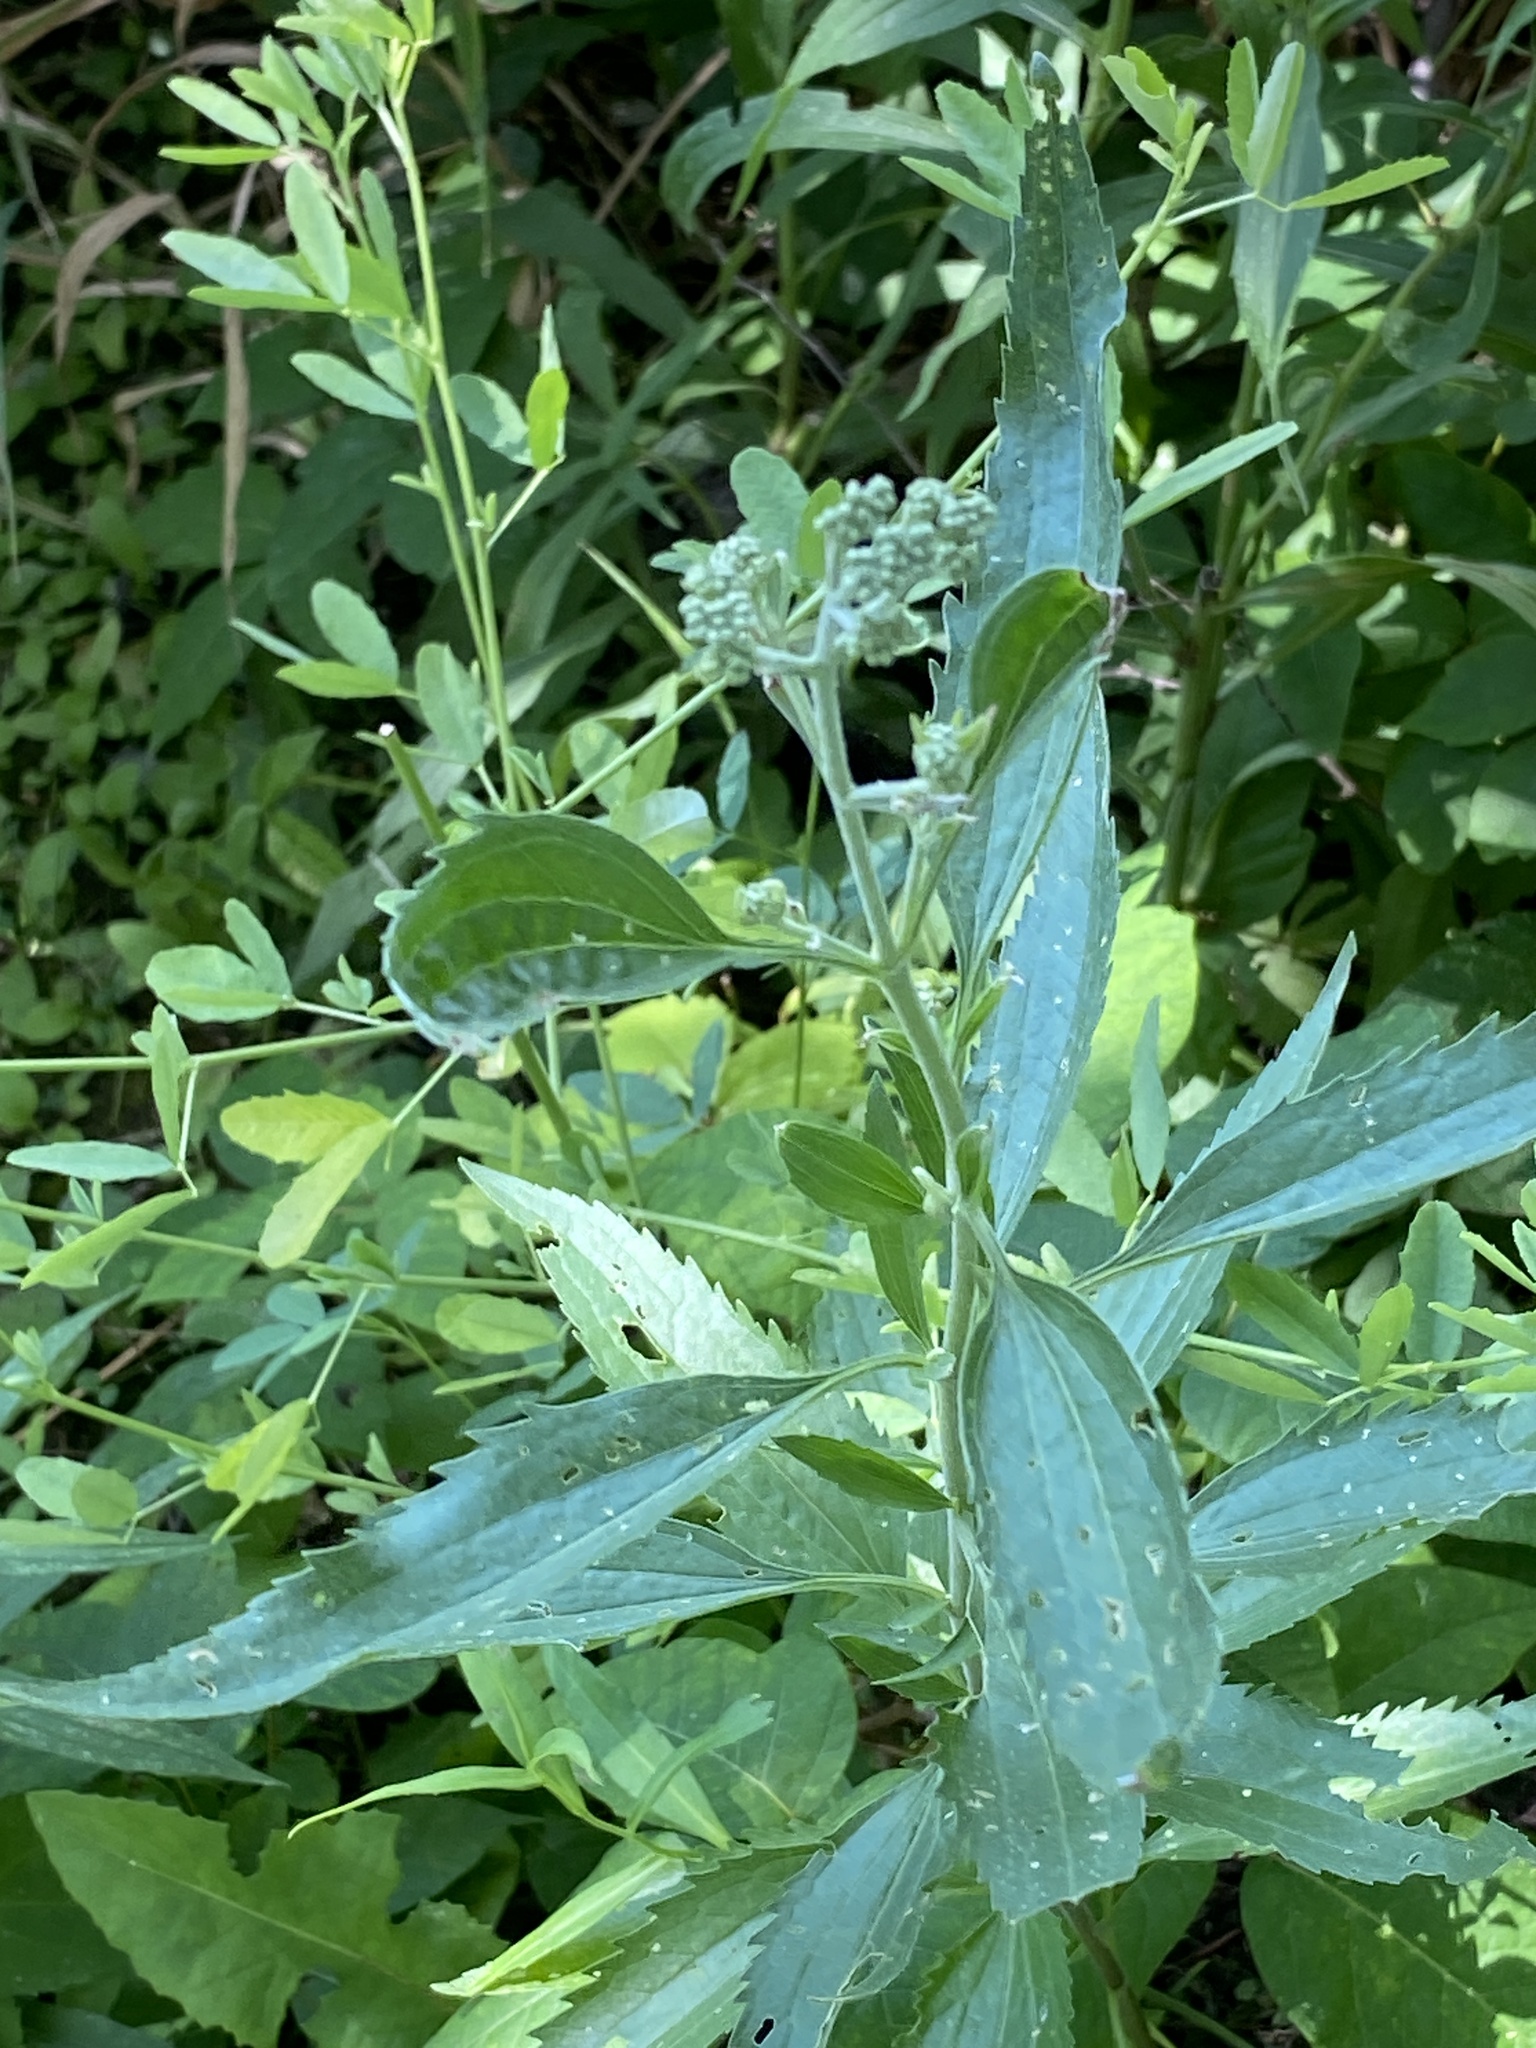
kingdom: Plantae
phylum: Tracheophyta
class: Magnoliopsida
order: Asterales
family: Asteraceae
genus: Eupatorium
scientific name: Eupatorium serotinum
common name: Late boneset
